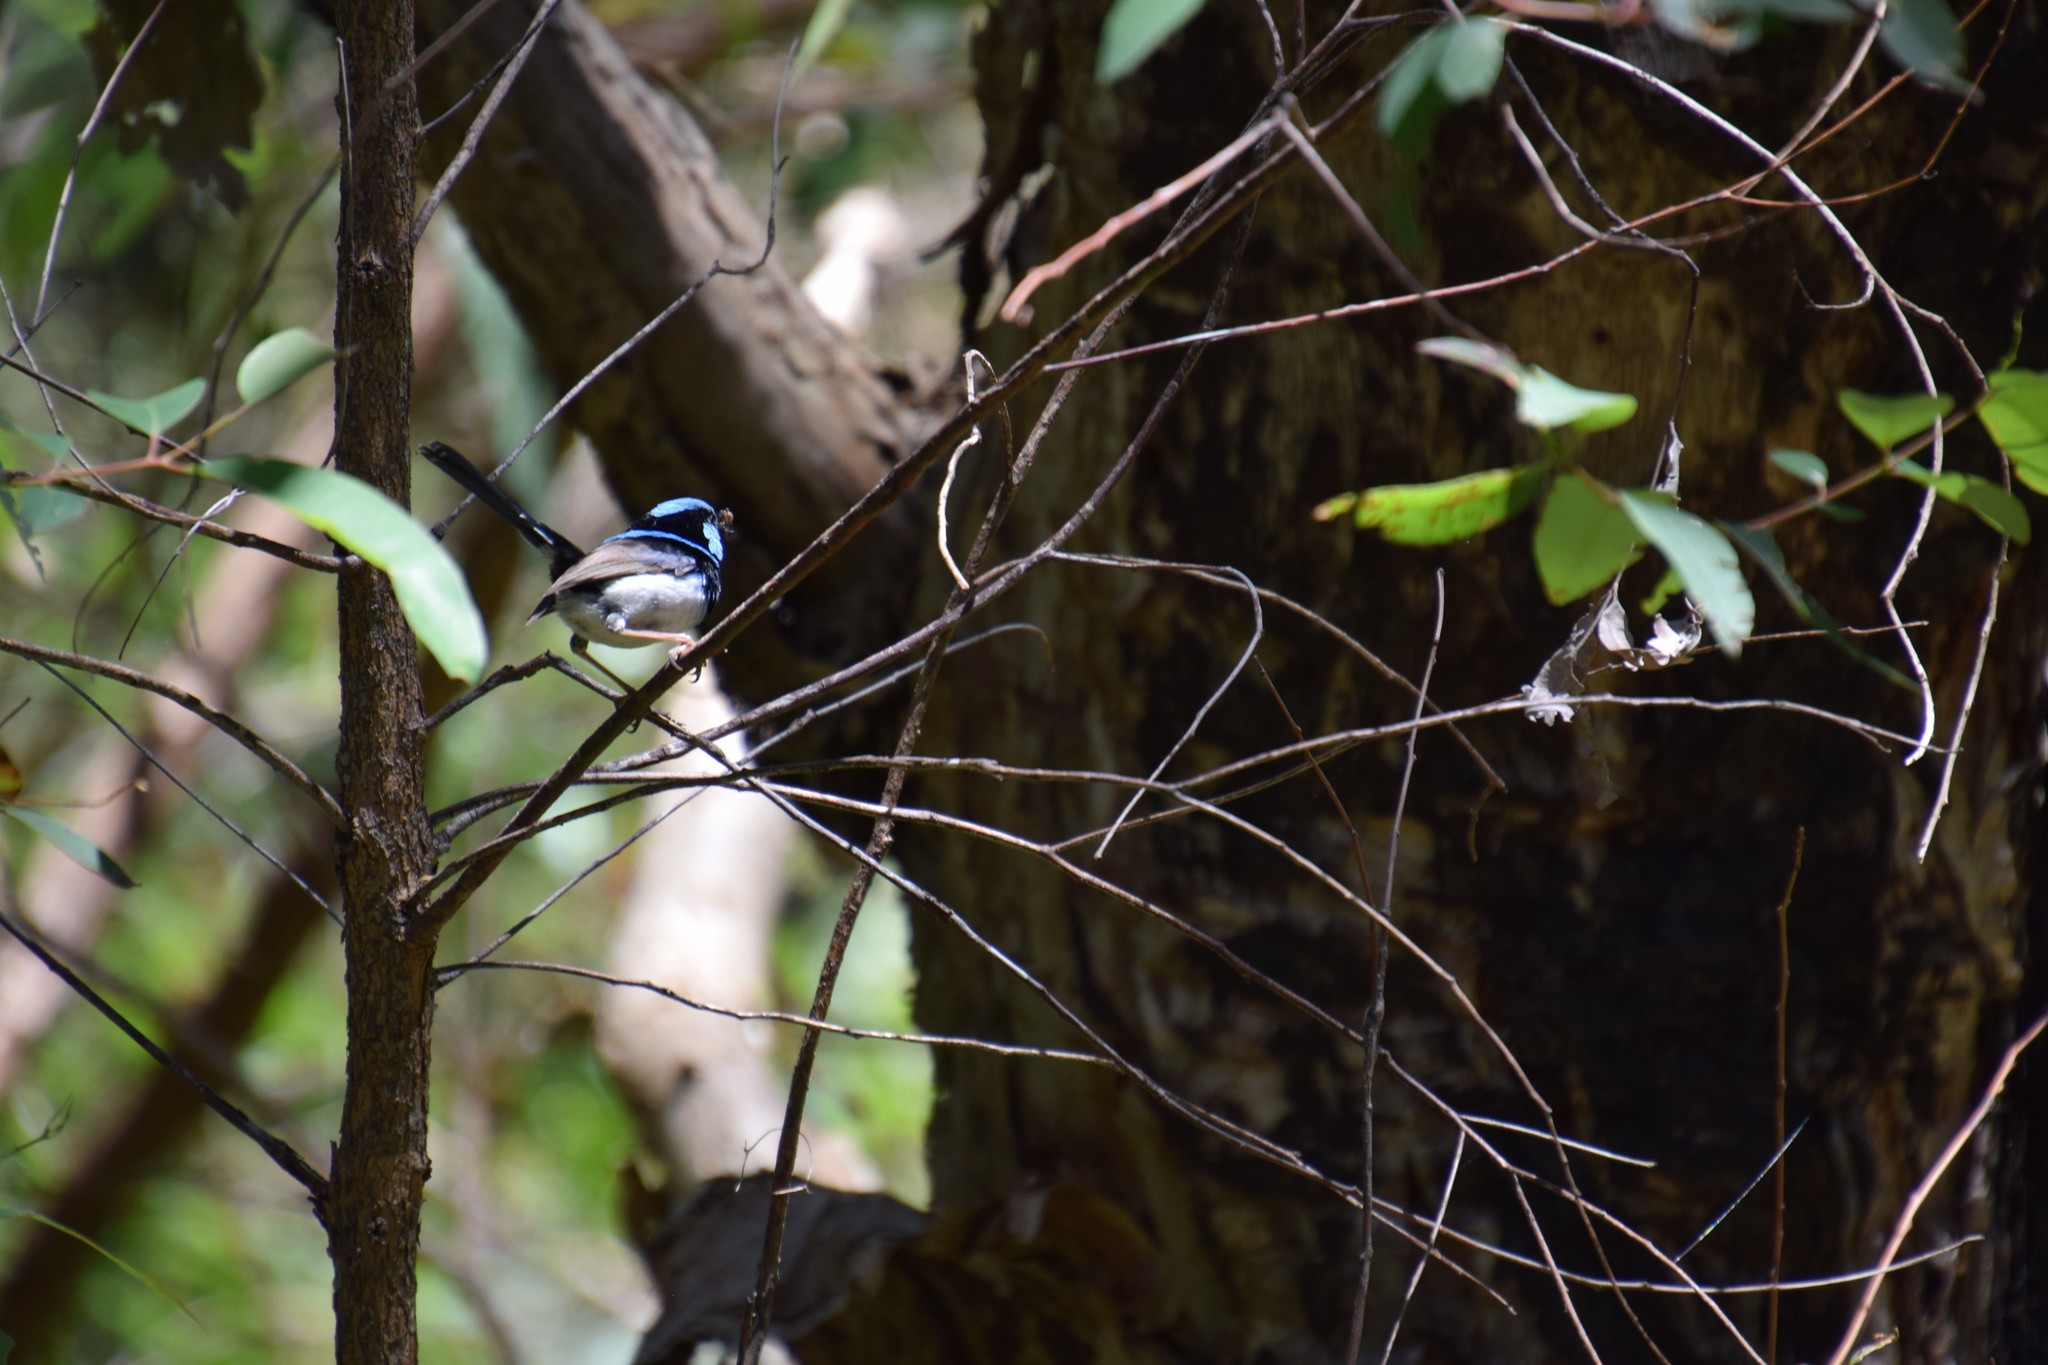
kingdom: Animalia
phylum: Chordata
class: Aves
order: Passeriformes
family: Maluridae
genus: Malurus
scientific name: Malurus cyaneus
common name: Superb fairywren
